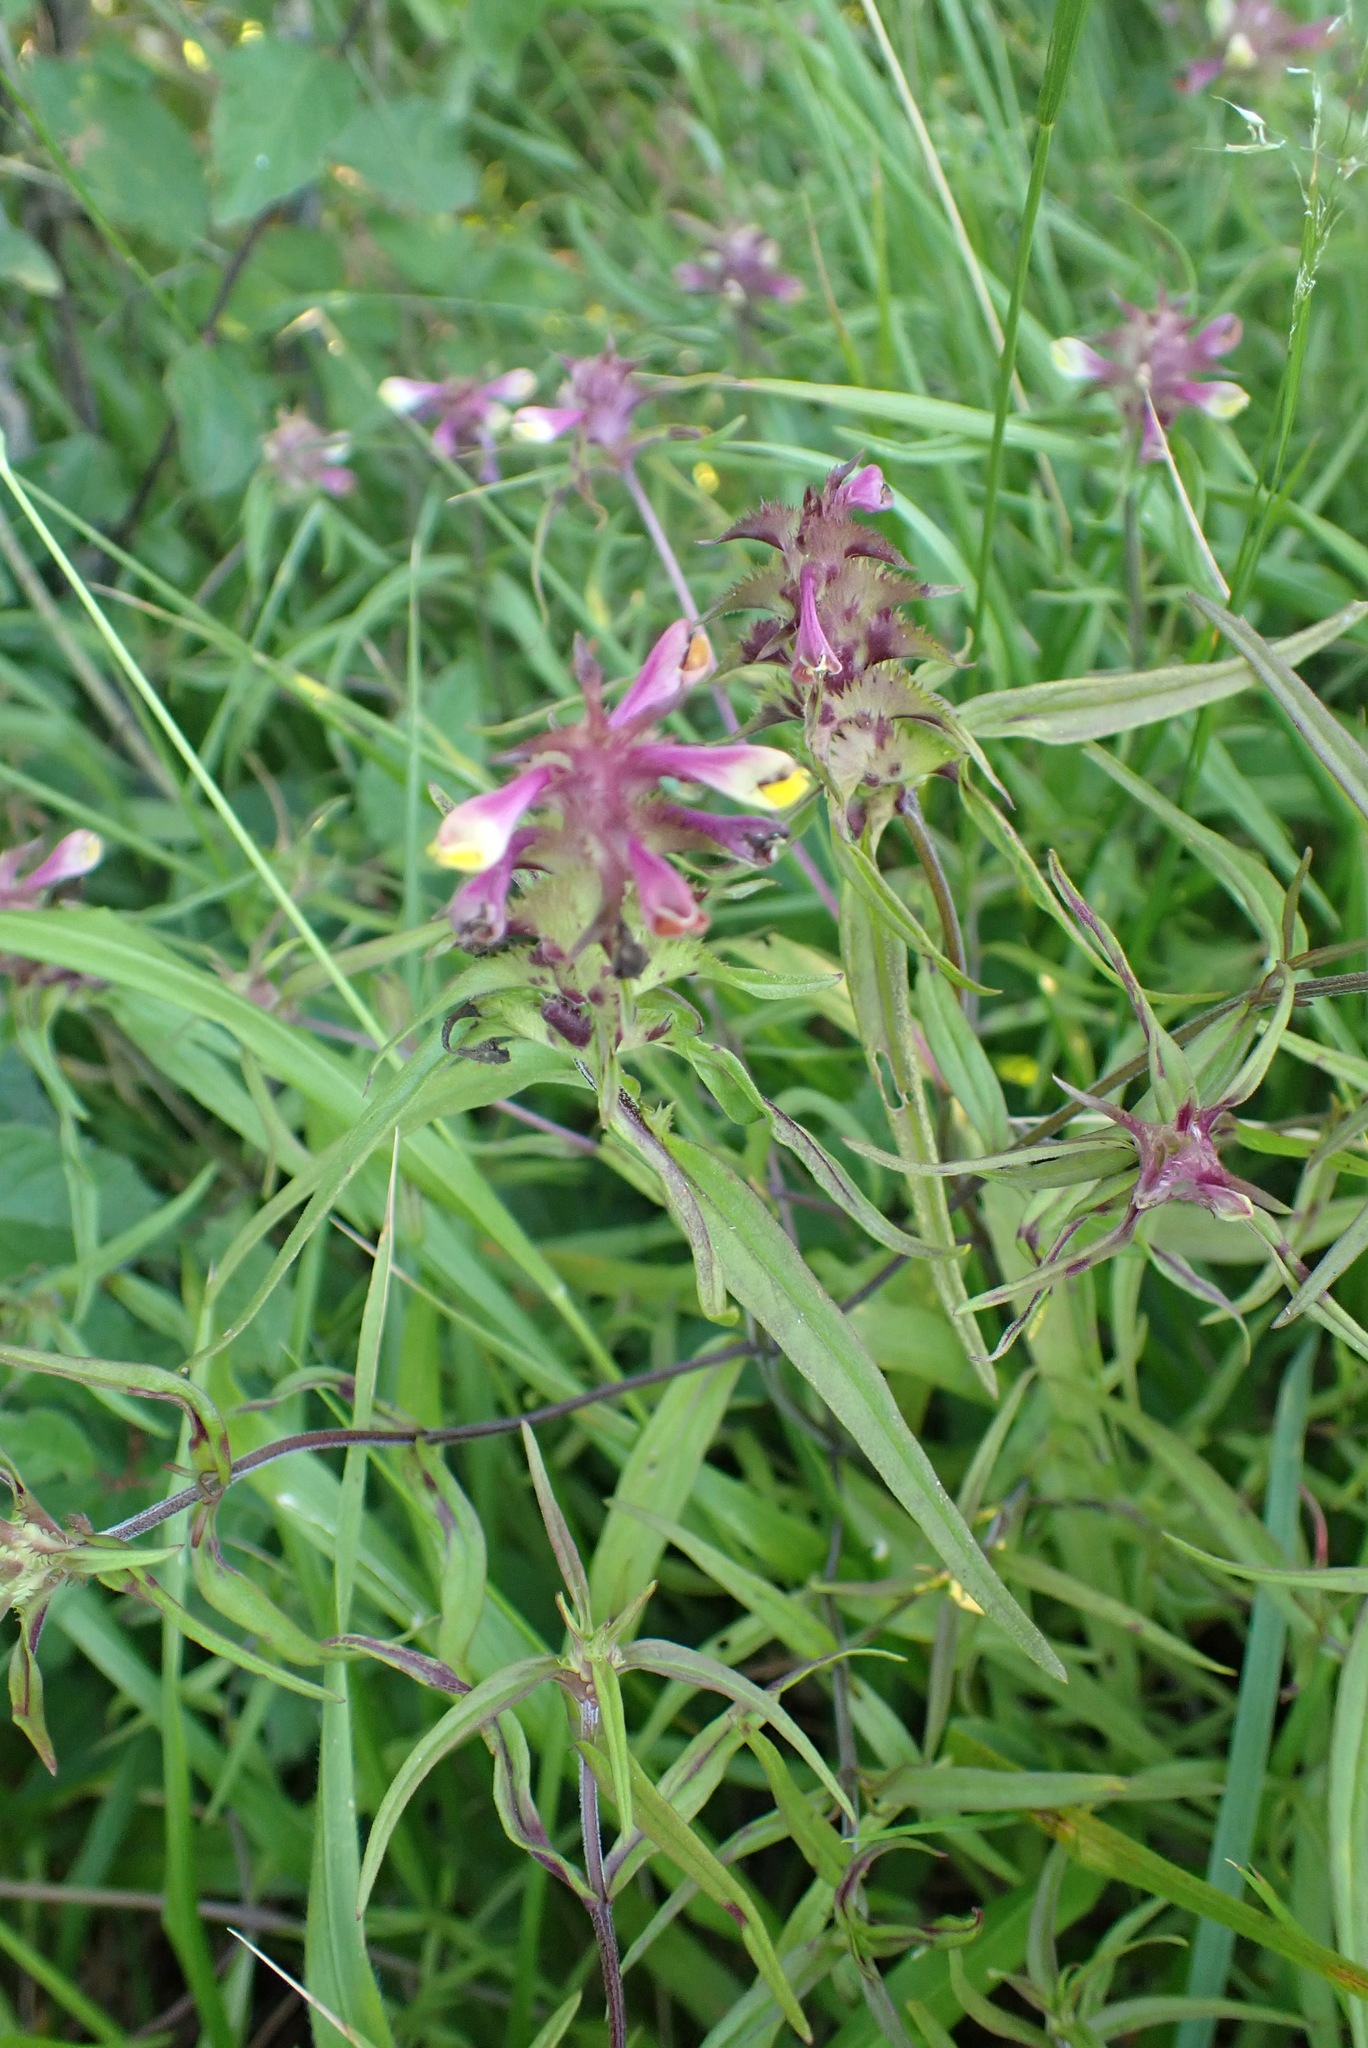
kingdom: Plantae
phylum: Tracheophyta
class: Magnoliopsida
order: Lamiales
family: Orobanchaceae
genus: Melampyrum
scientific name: Melampyrum cristatum
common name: Crested cow-wheat
